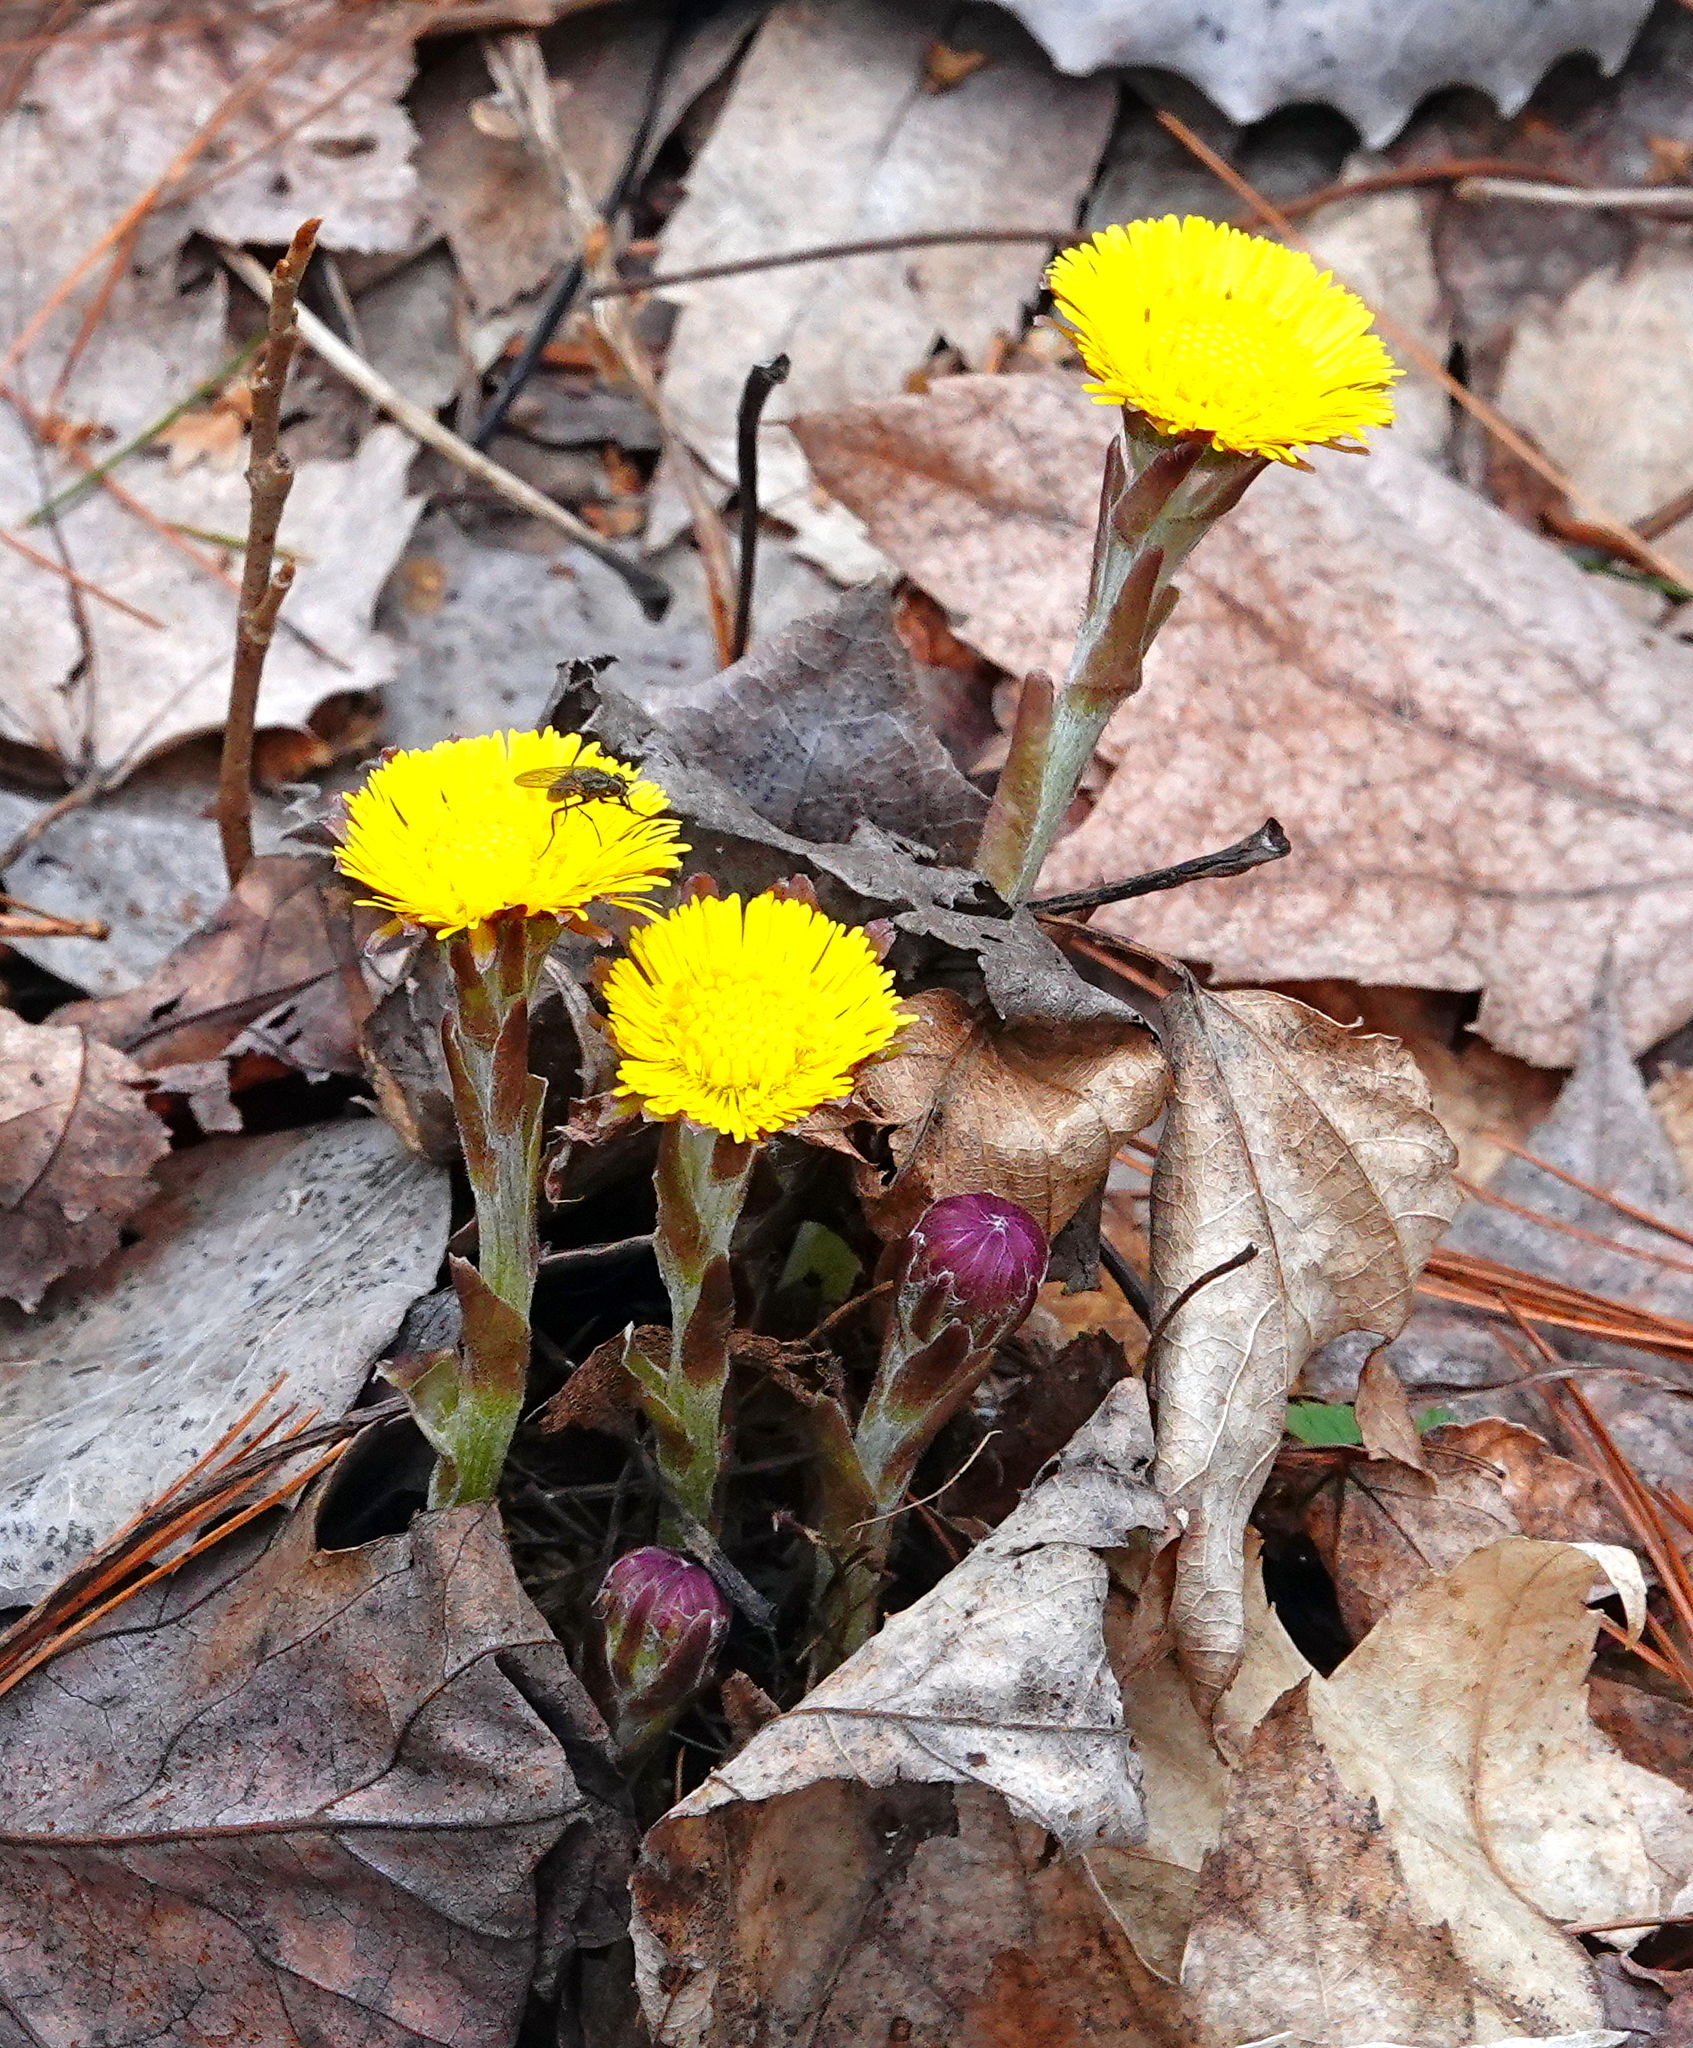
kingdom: Plantae
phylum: Tracheophyta
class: Magnoliopsida
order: Asterales
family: Asteraceae
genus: Tussilago
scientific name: Tussilago farfara
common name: Coltsfoot
